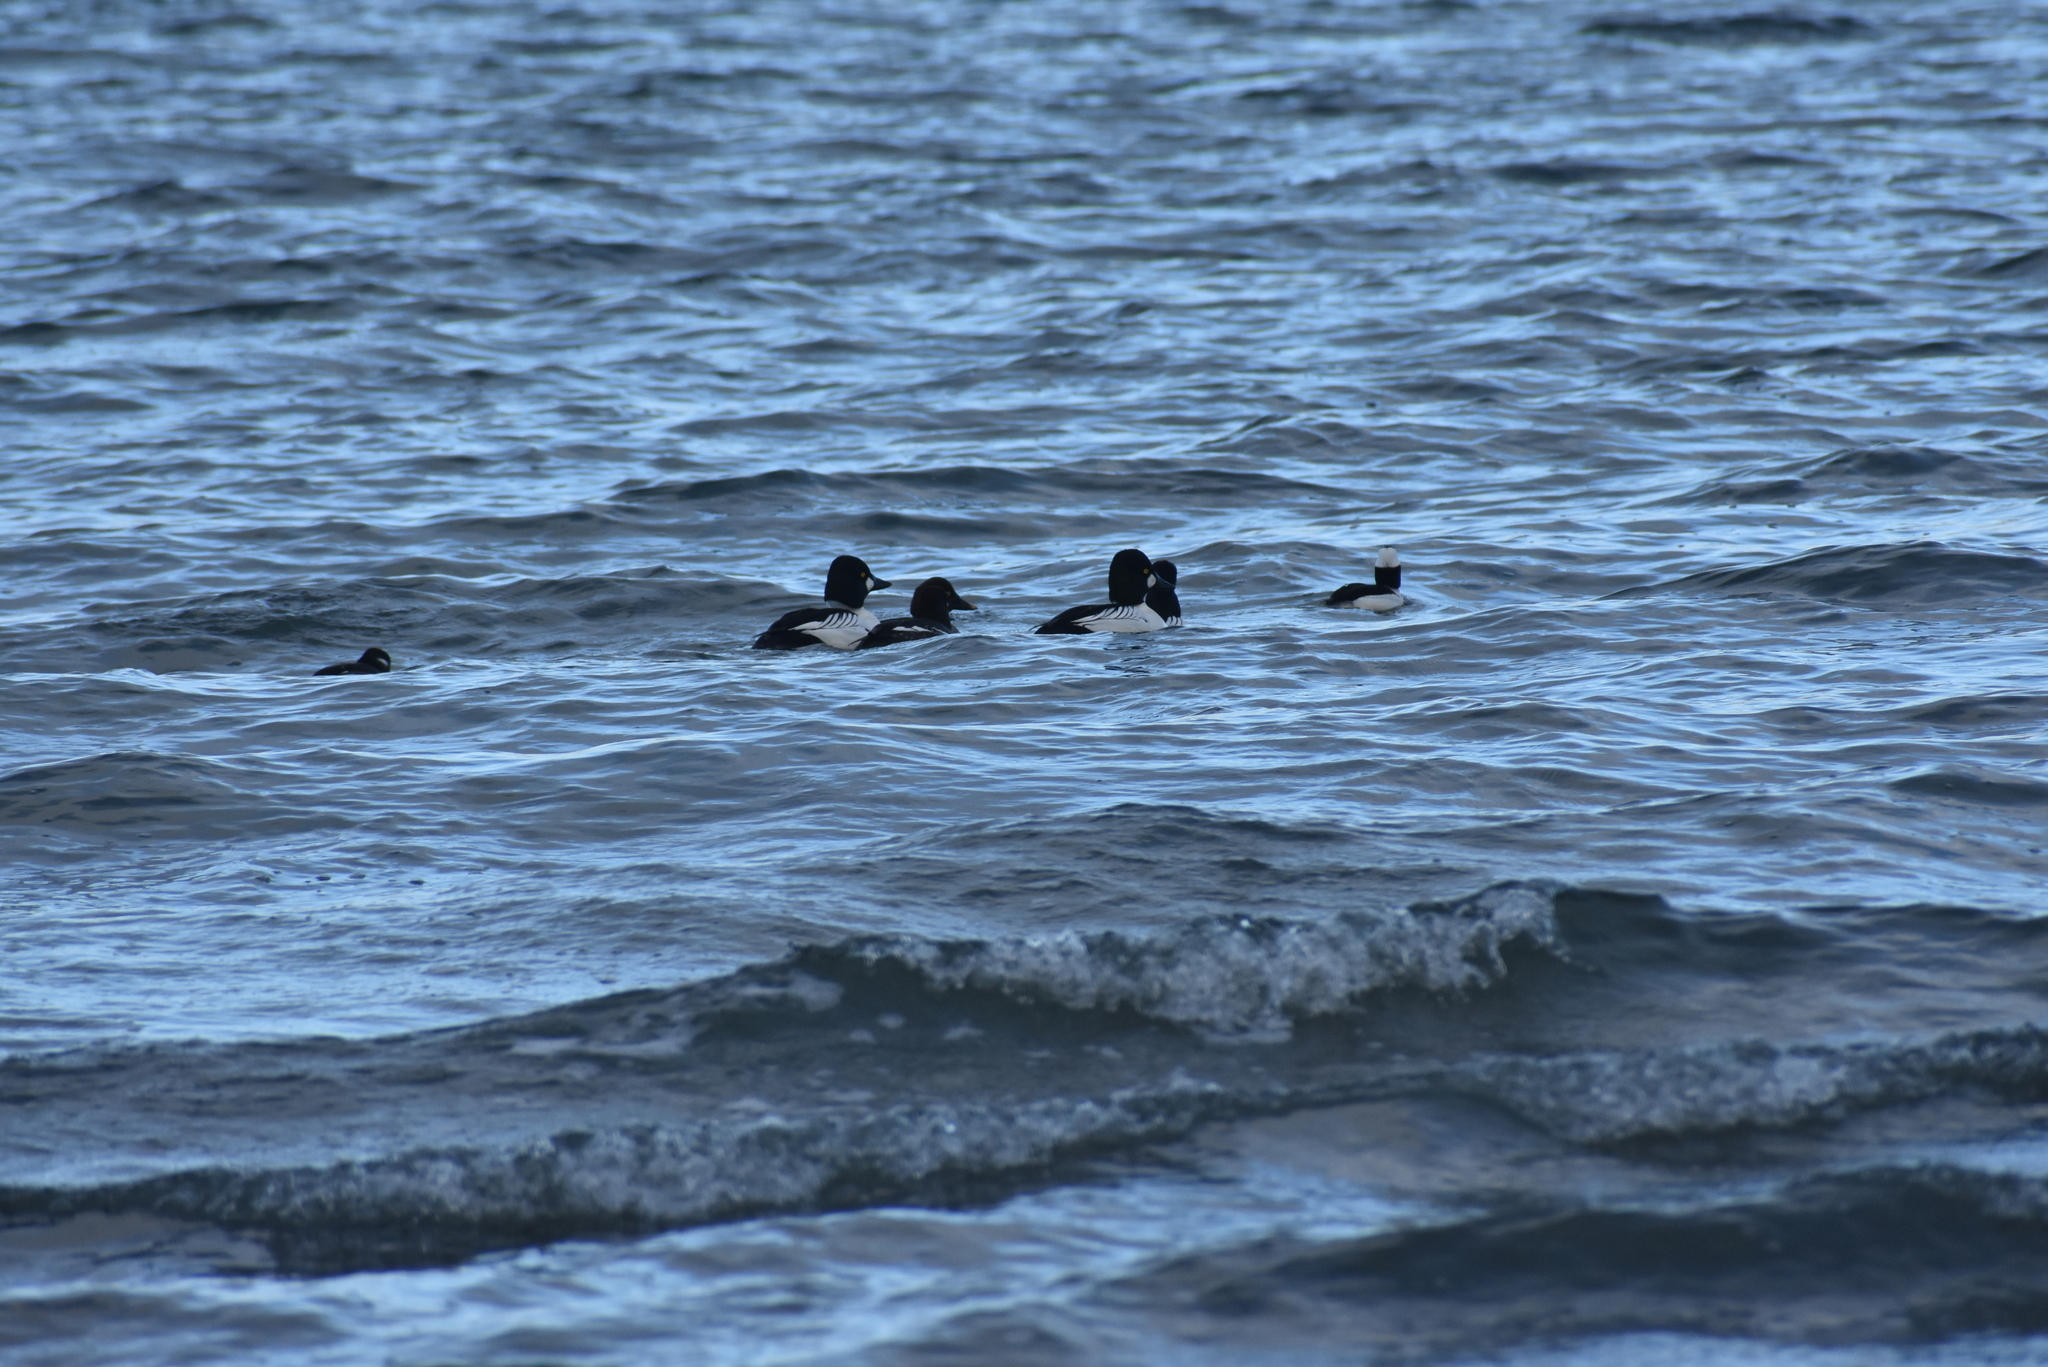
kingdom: Animalia
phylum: Chordata
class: Aves
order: Anseriformes
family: Anatidae
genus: Bucephala
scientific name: Bucephala albeola
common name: Bufflehead
